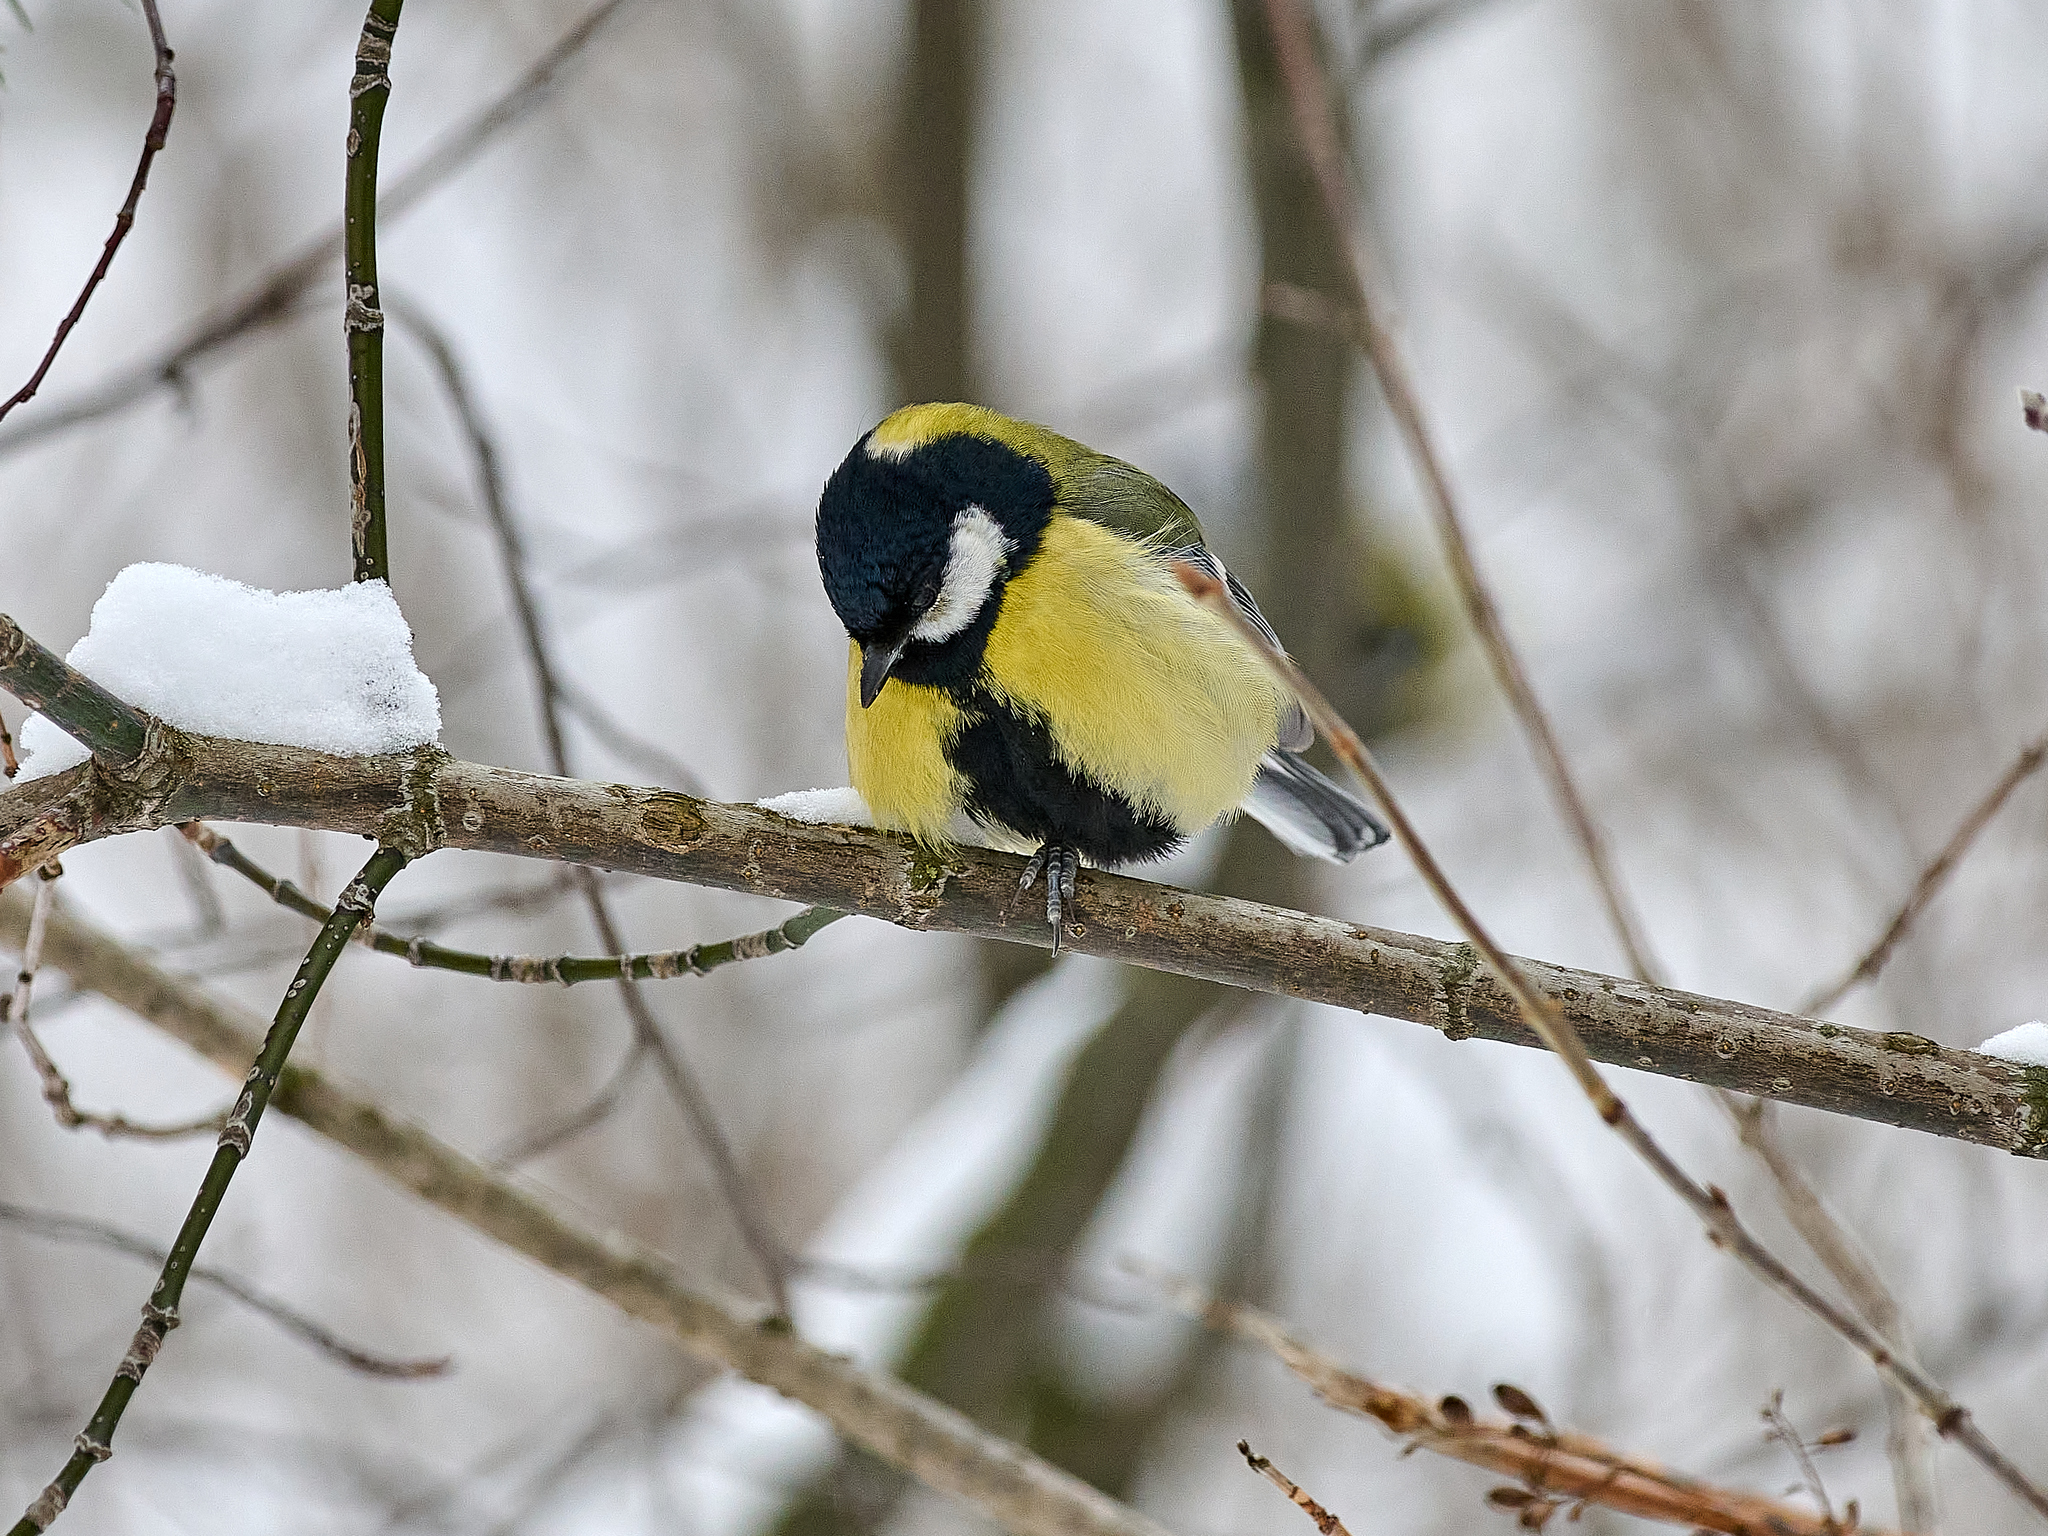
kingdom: Animalia
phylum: Chordata
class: Aves
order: Passeriformes
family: Paridae
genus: Parus
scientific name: Parus major
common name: Great tit
